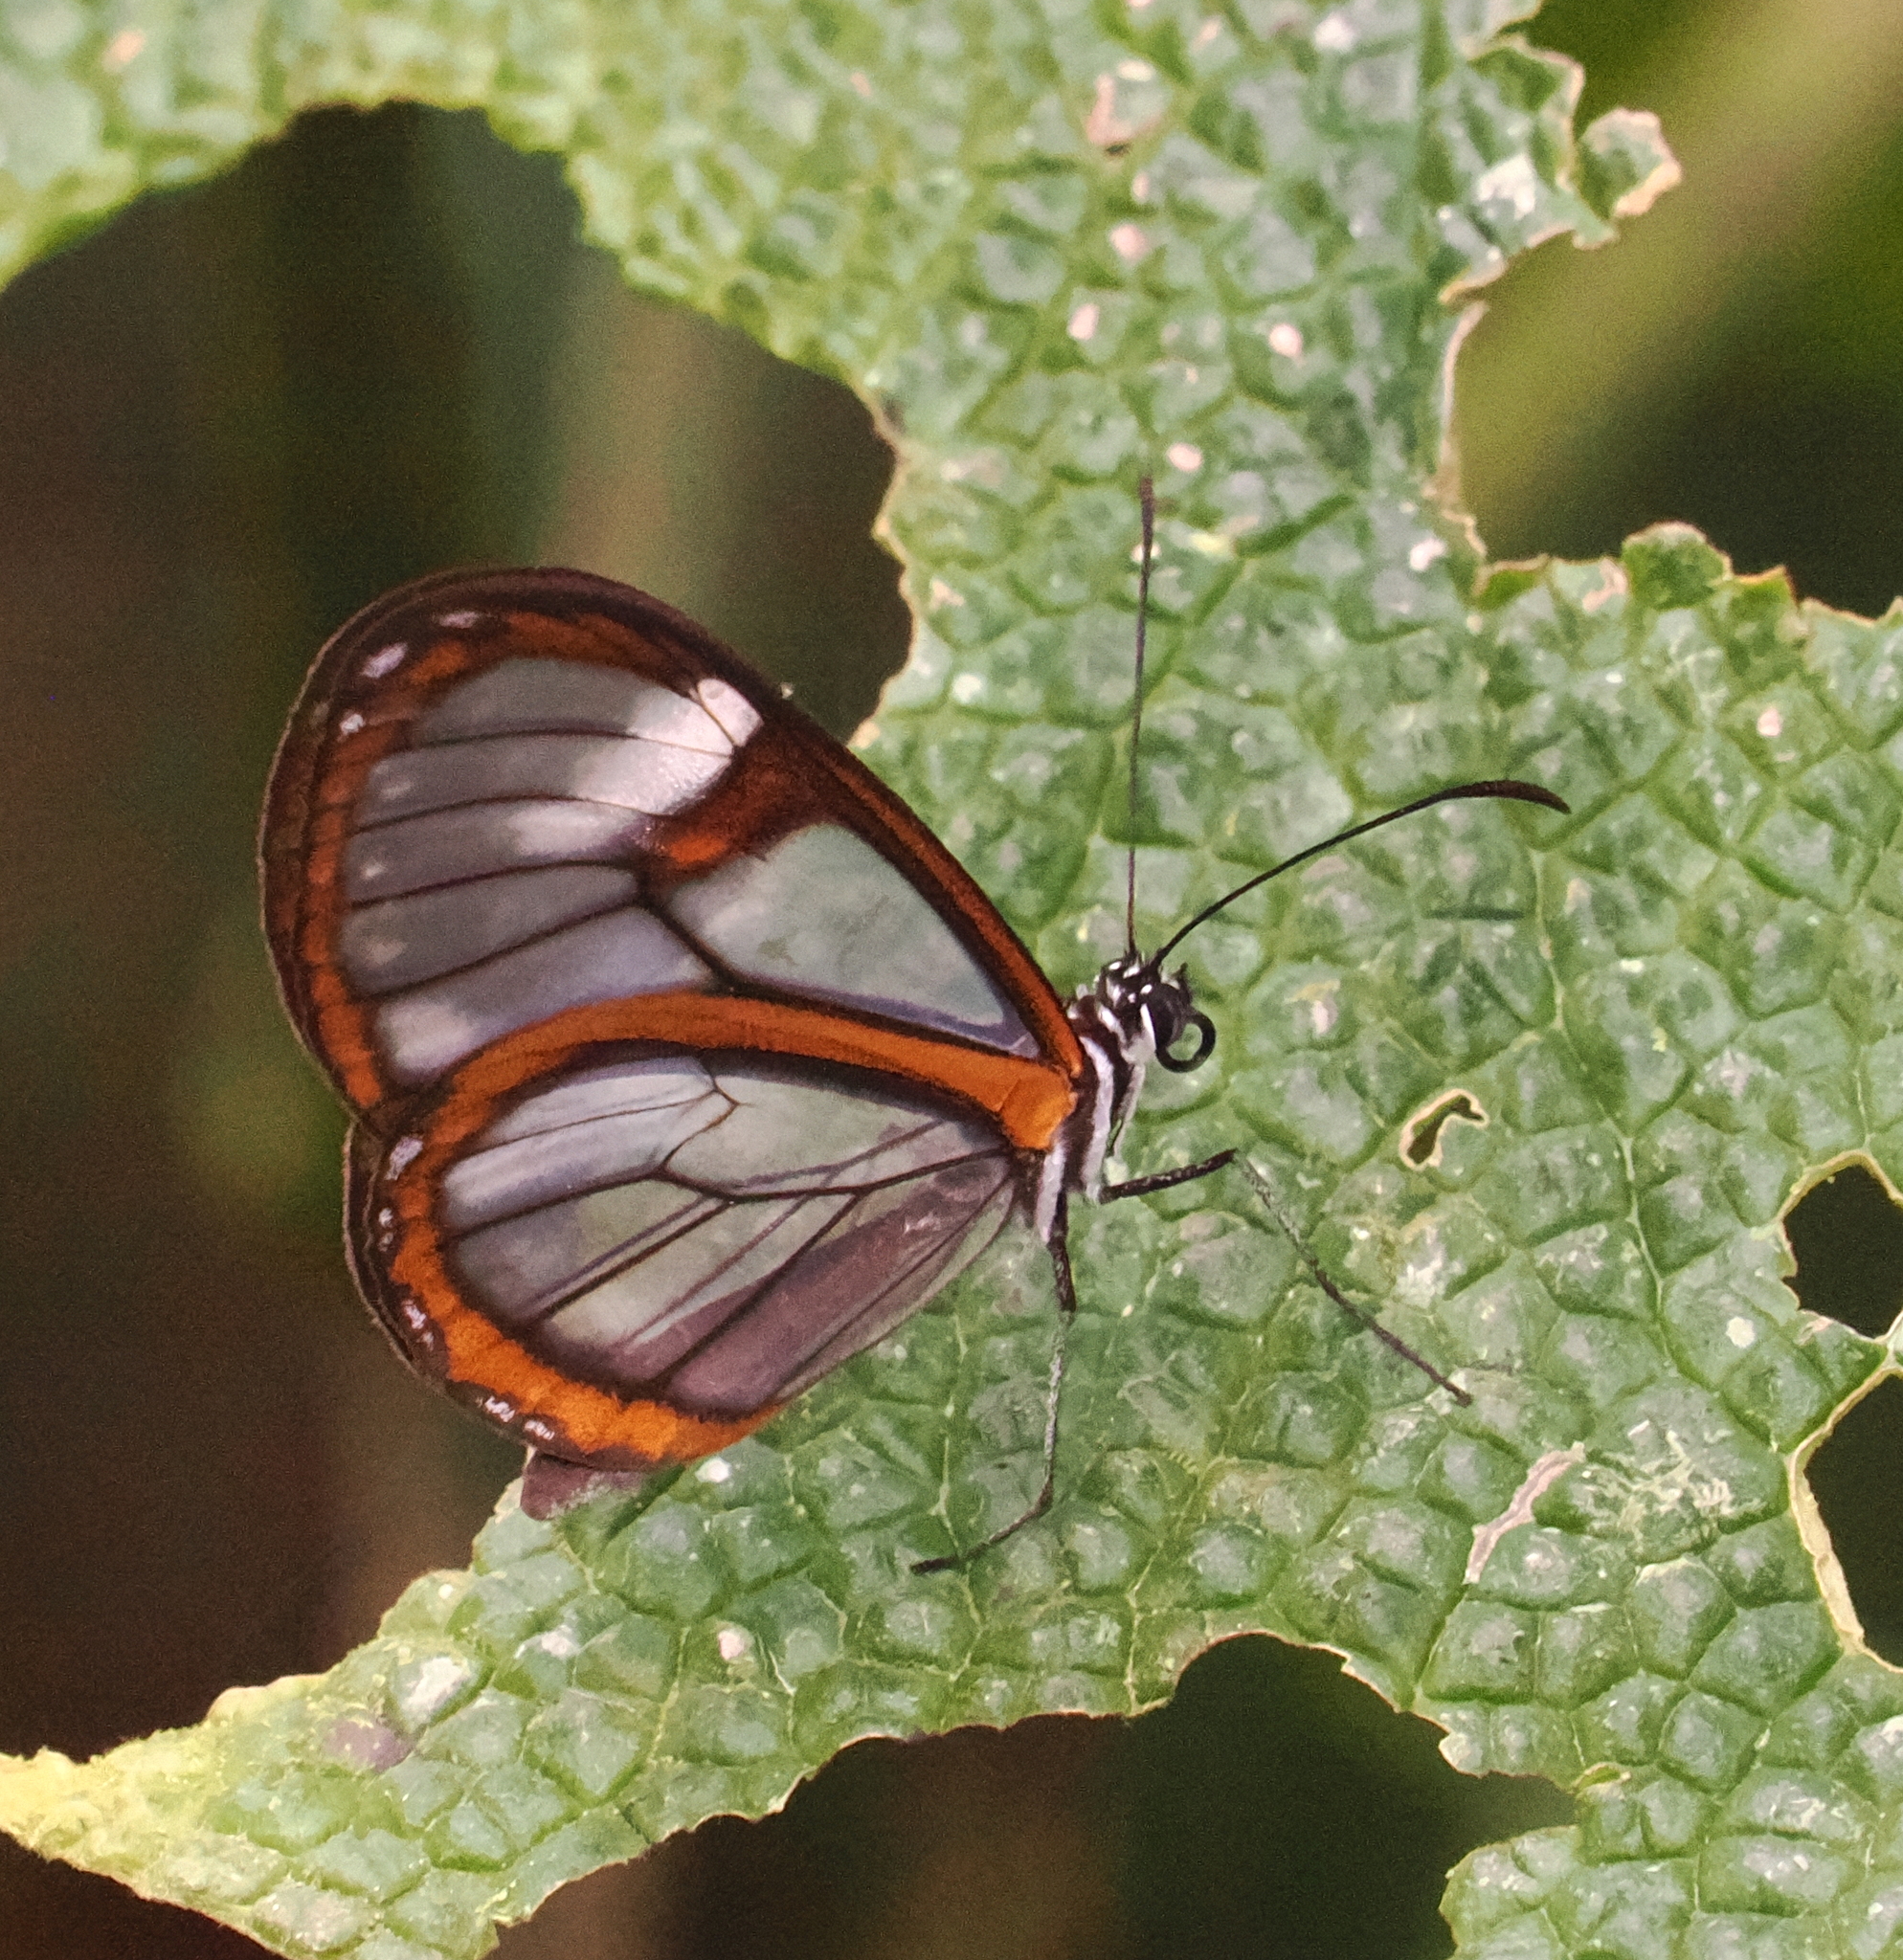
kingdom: Animalia
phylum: Arthropoda
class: Insecta
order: Lepidoptera
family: Nymphalidae
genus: Pteronymia
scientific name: Pteronymia medellina
